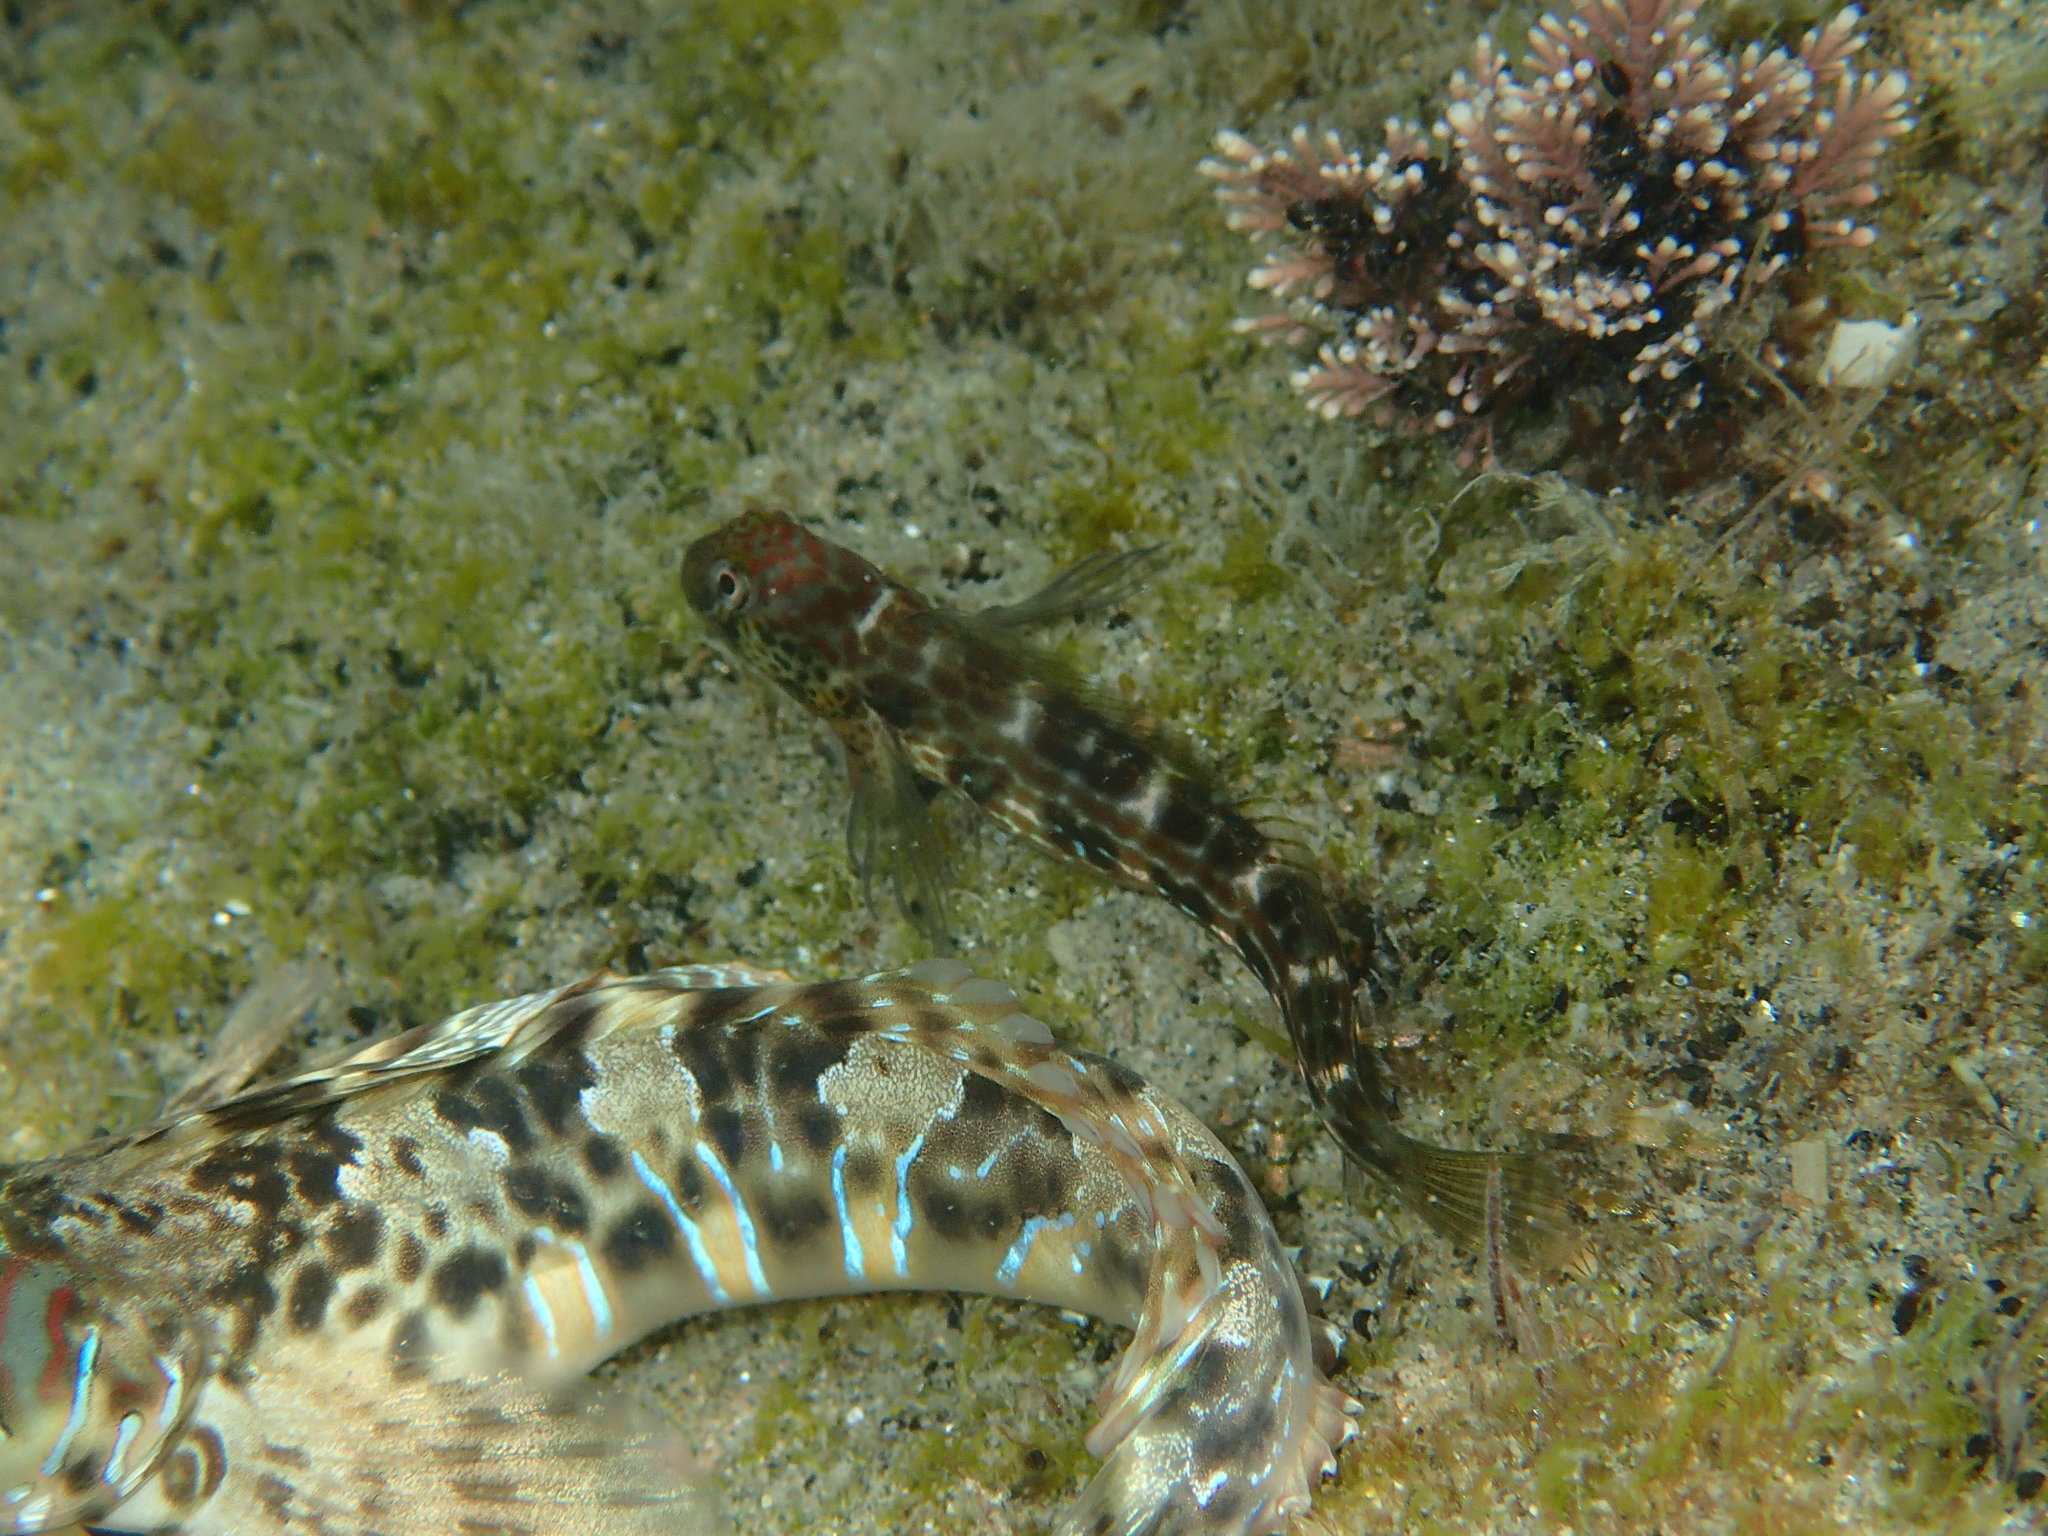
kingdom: Animalia
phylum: Chordata
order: Perciformes
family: Blenniidae
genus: Microlipophrys
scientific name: Microlipophrys canevae
